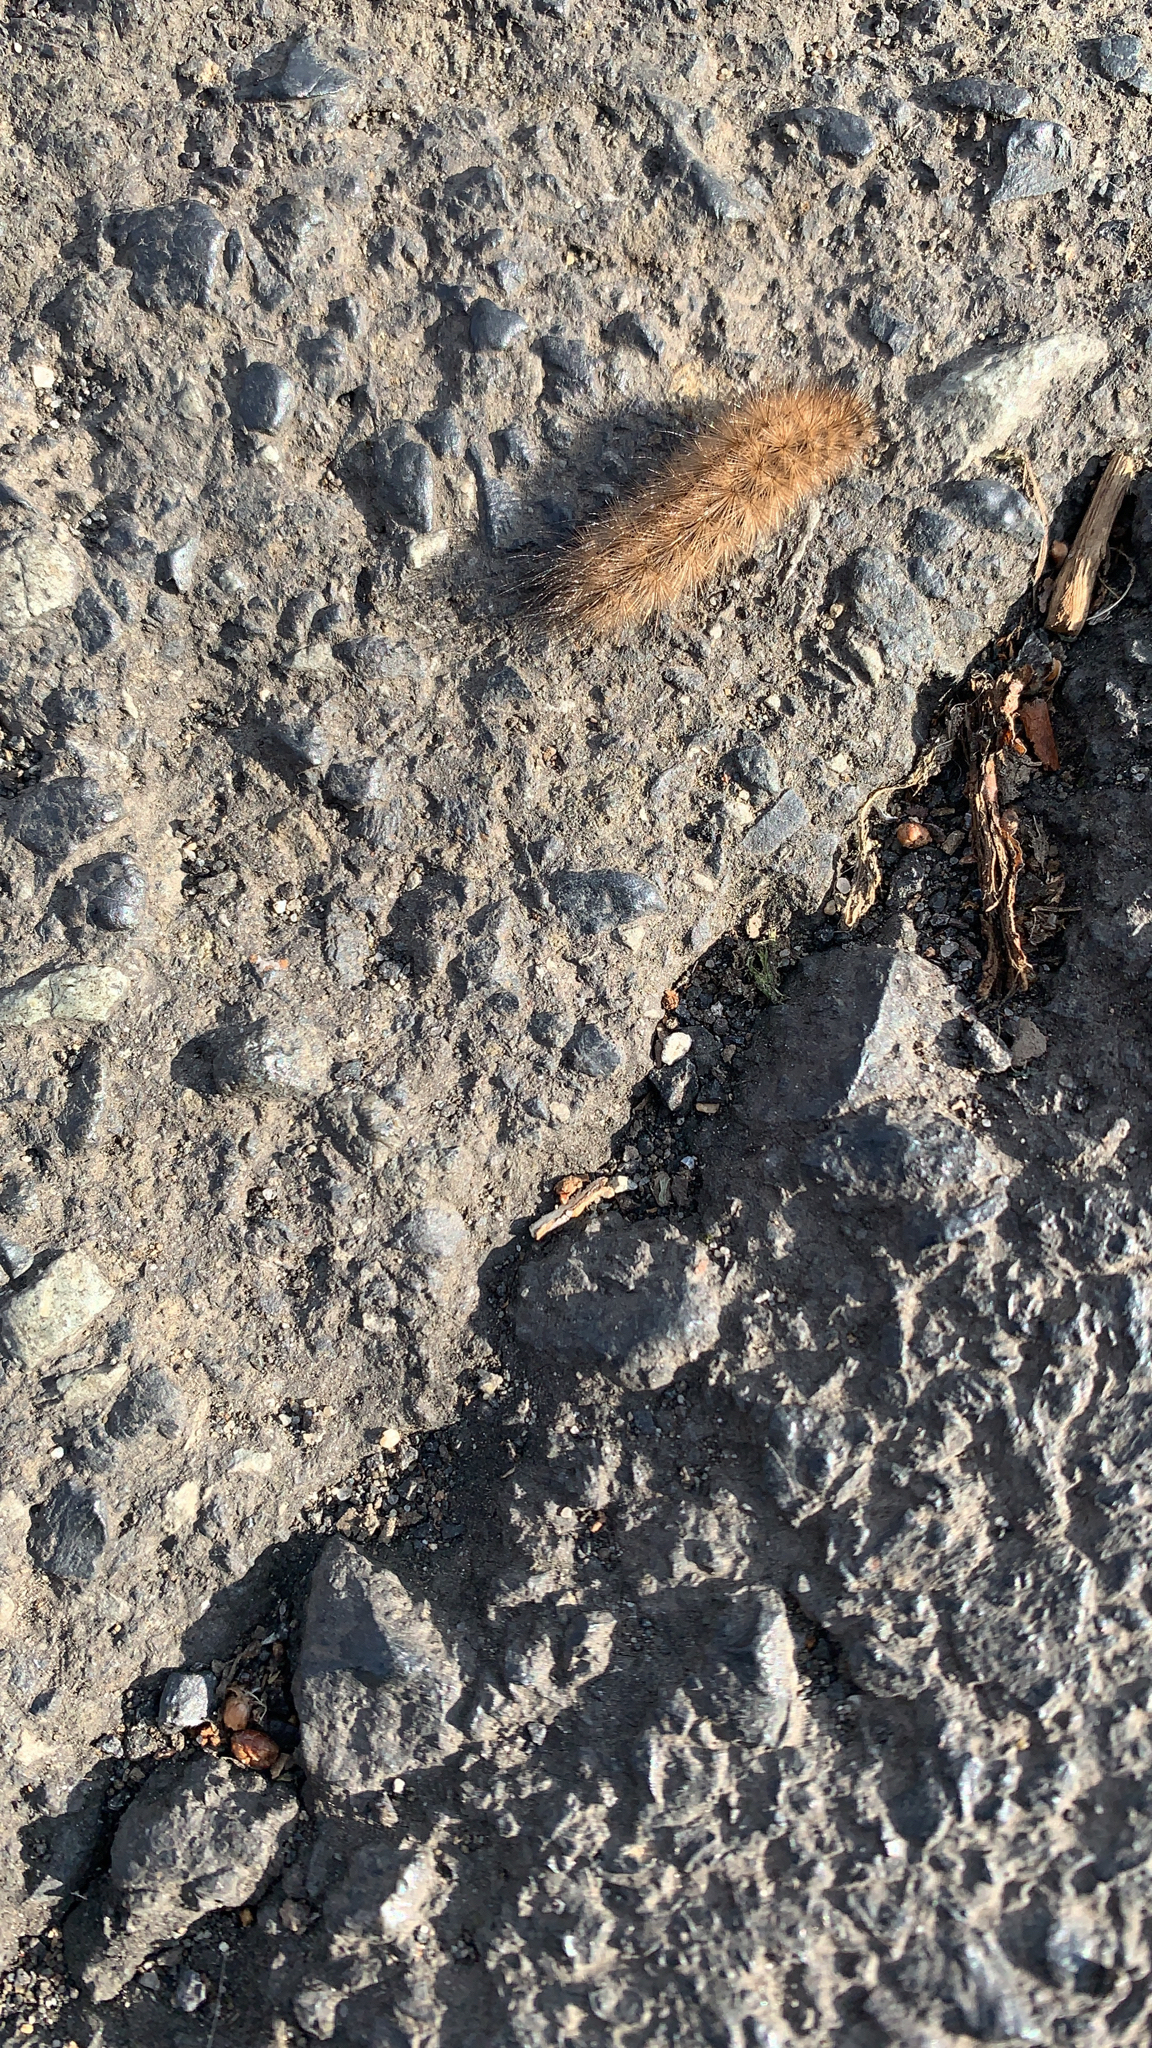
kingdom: Animalia
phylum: Arthropoda
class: Insecta
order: Lepidoptera
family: Erebidae
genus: Phragmatobia
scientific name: Phragmatobia fuliginosa
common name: Ruby tiger
